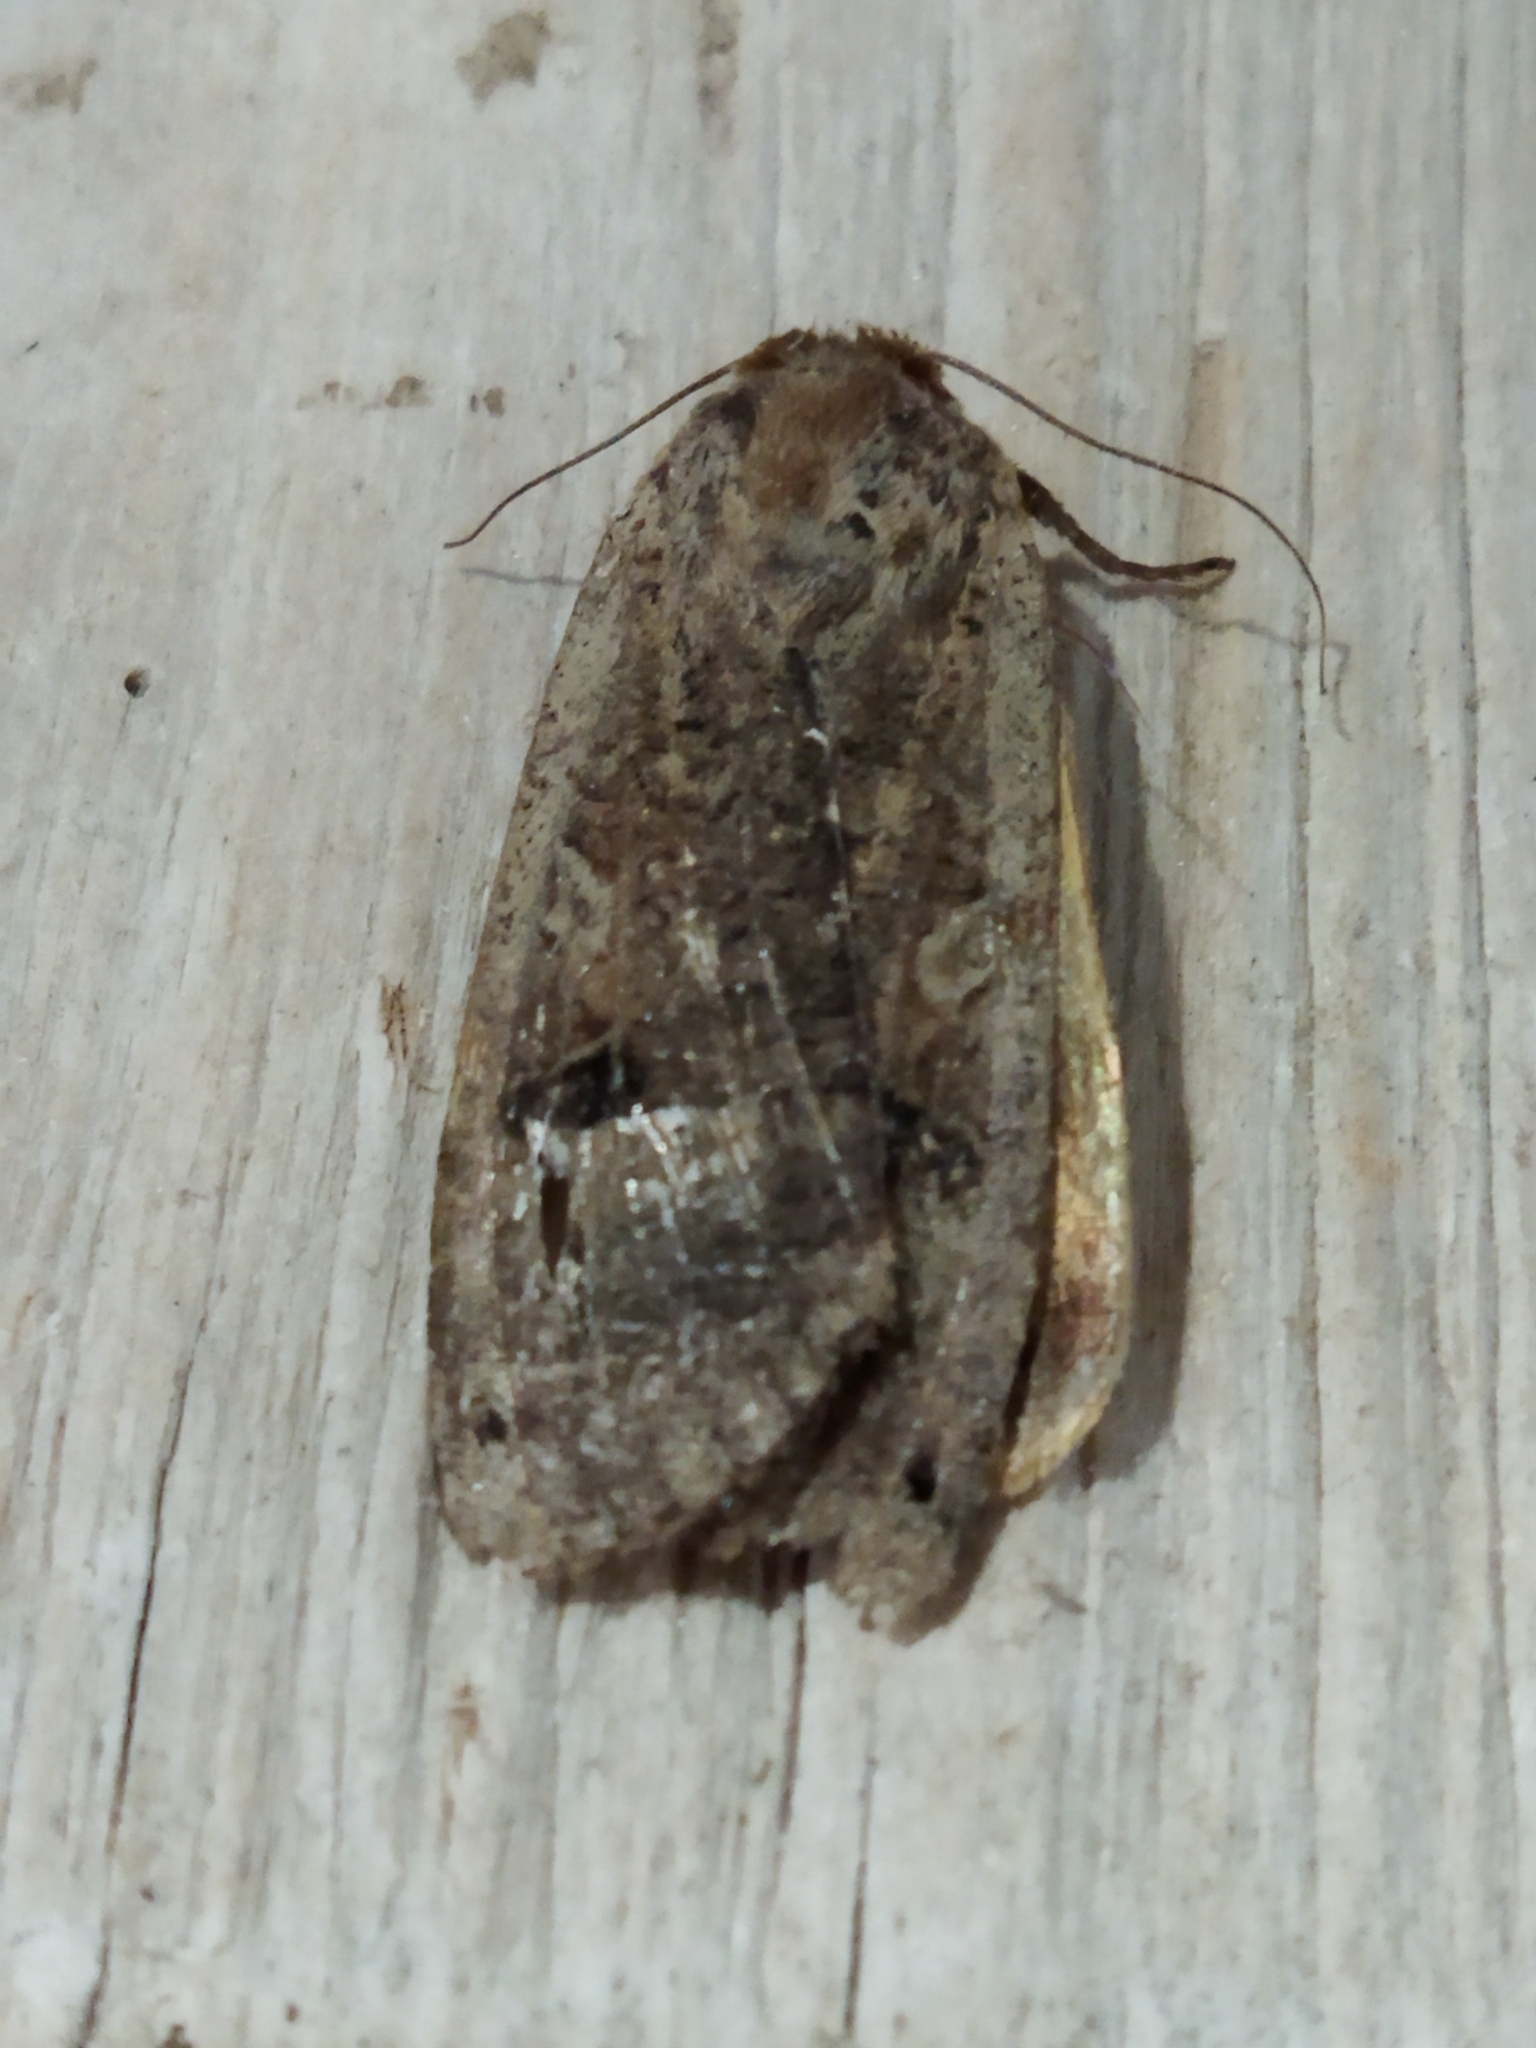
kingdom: Animalia
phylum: Arthropoda
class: Insecta
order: Lepidoptera
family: Noctuidae
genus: Noctua
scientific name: Noctua pronuba
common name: Large yellow underwing
